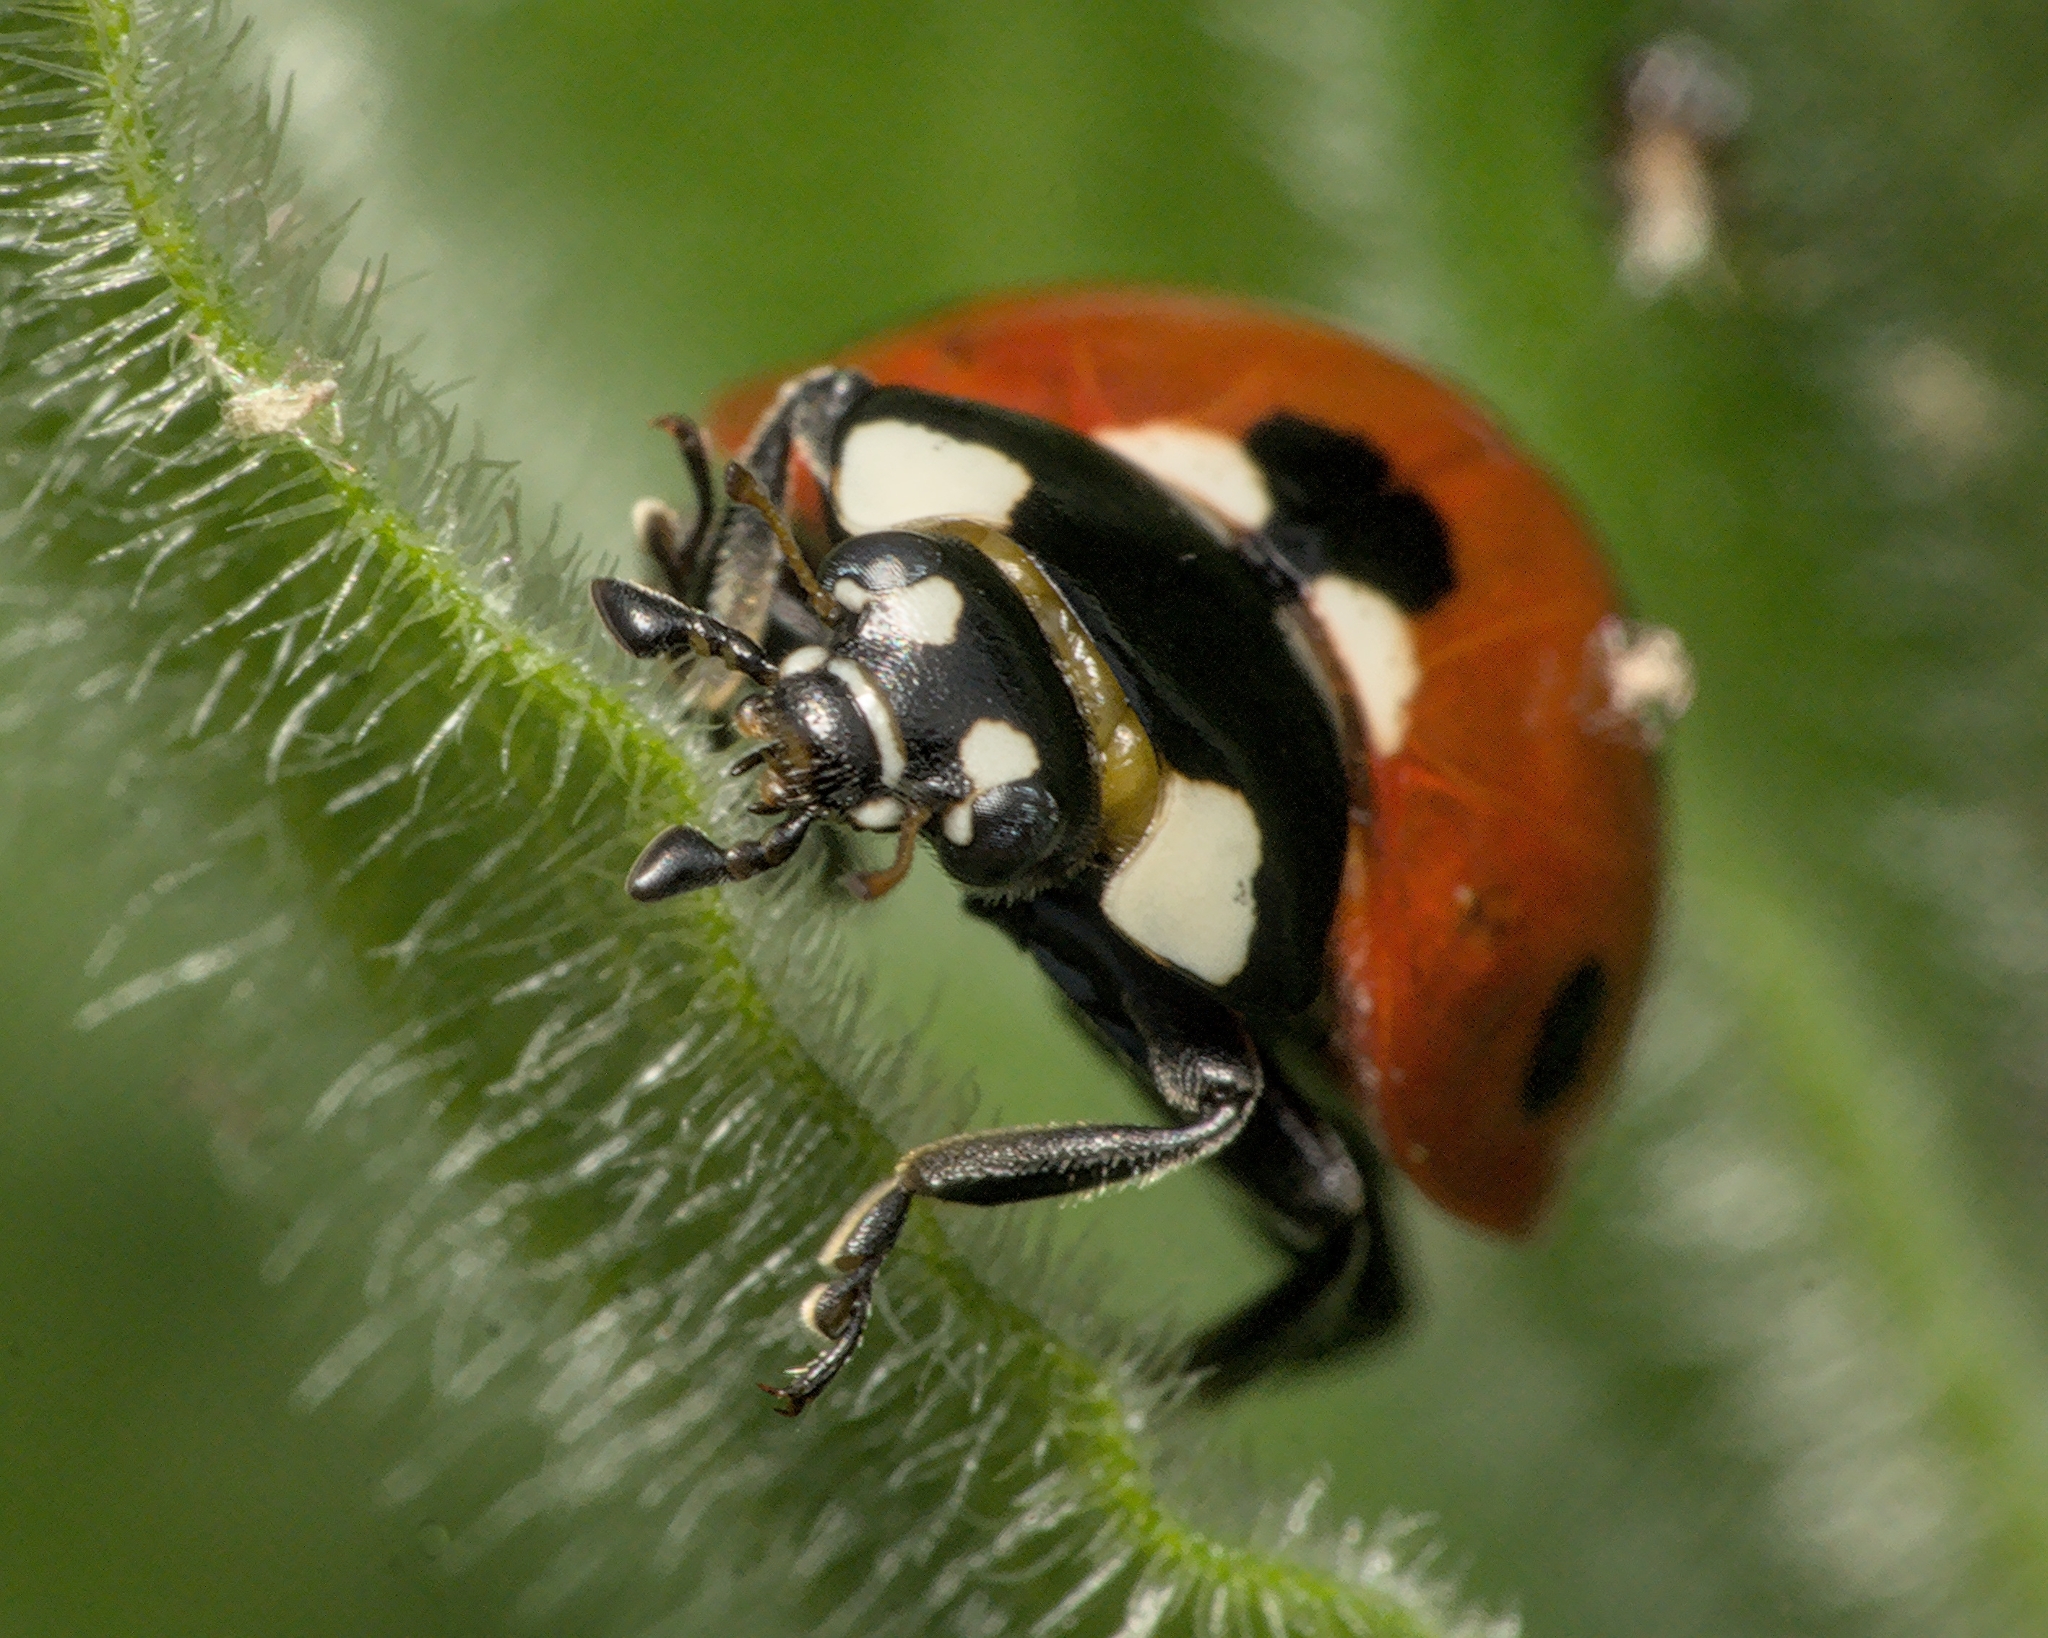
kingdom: Animalia
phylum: Arthropoda
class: Insecta
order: Coleoptera
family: Coccinellidae
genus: Coccinella
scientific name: Coccinella septempunctata
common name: Sevenspotted lady beetle
